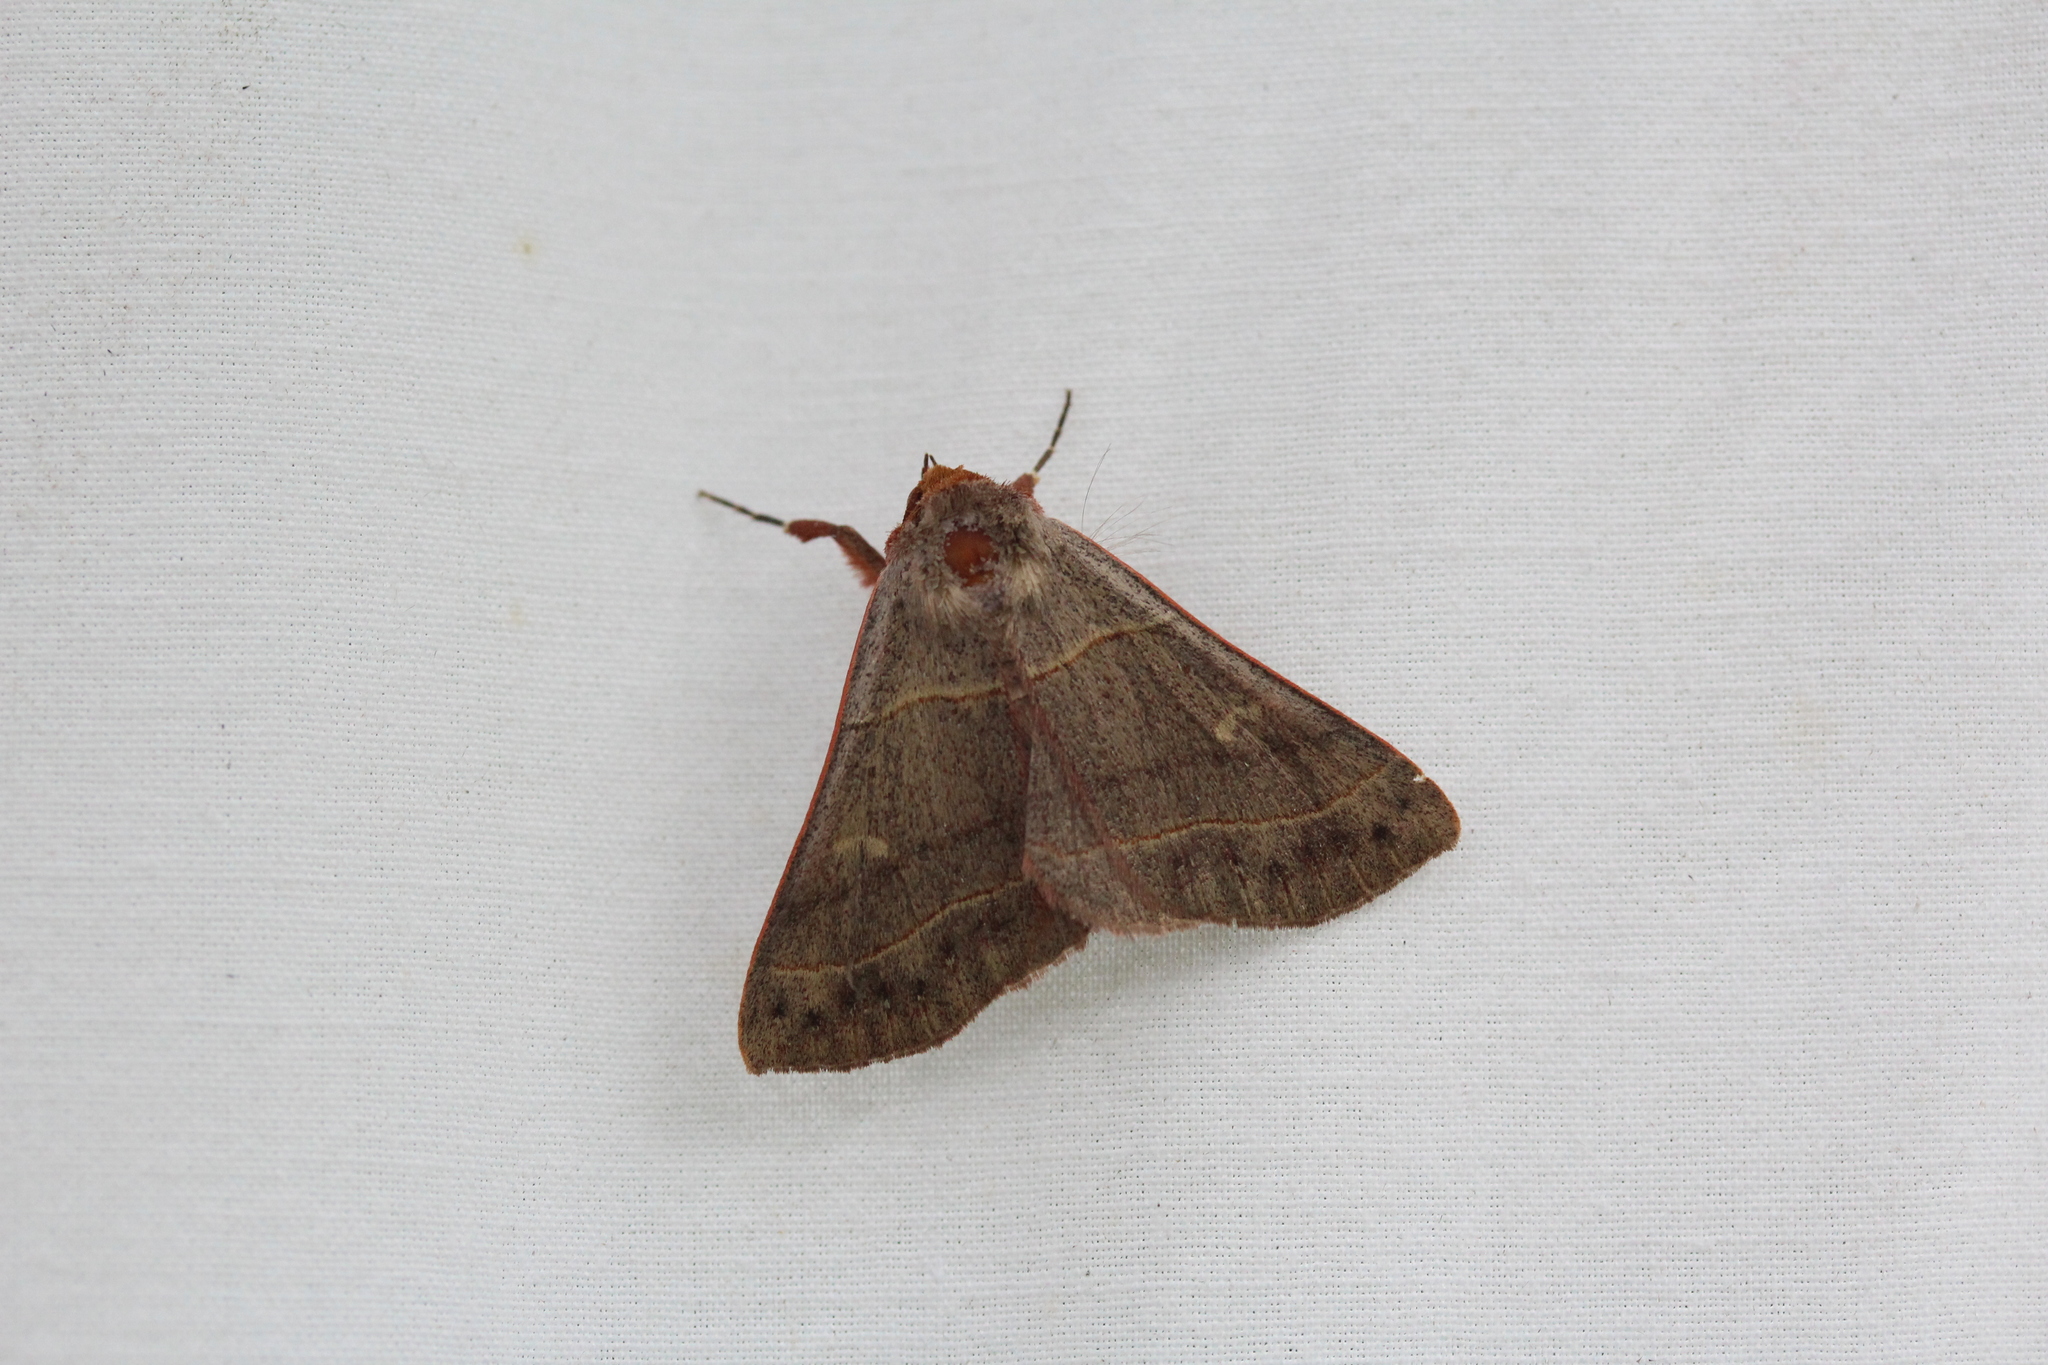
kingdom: Animalia
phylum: Arthropoda
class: Insecta
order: Lepidoptera
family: Erebidae
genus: Panopoda
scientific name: Panopoda rufimargo
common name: Red-lined panopoda moth
